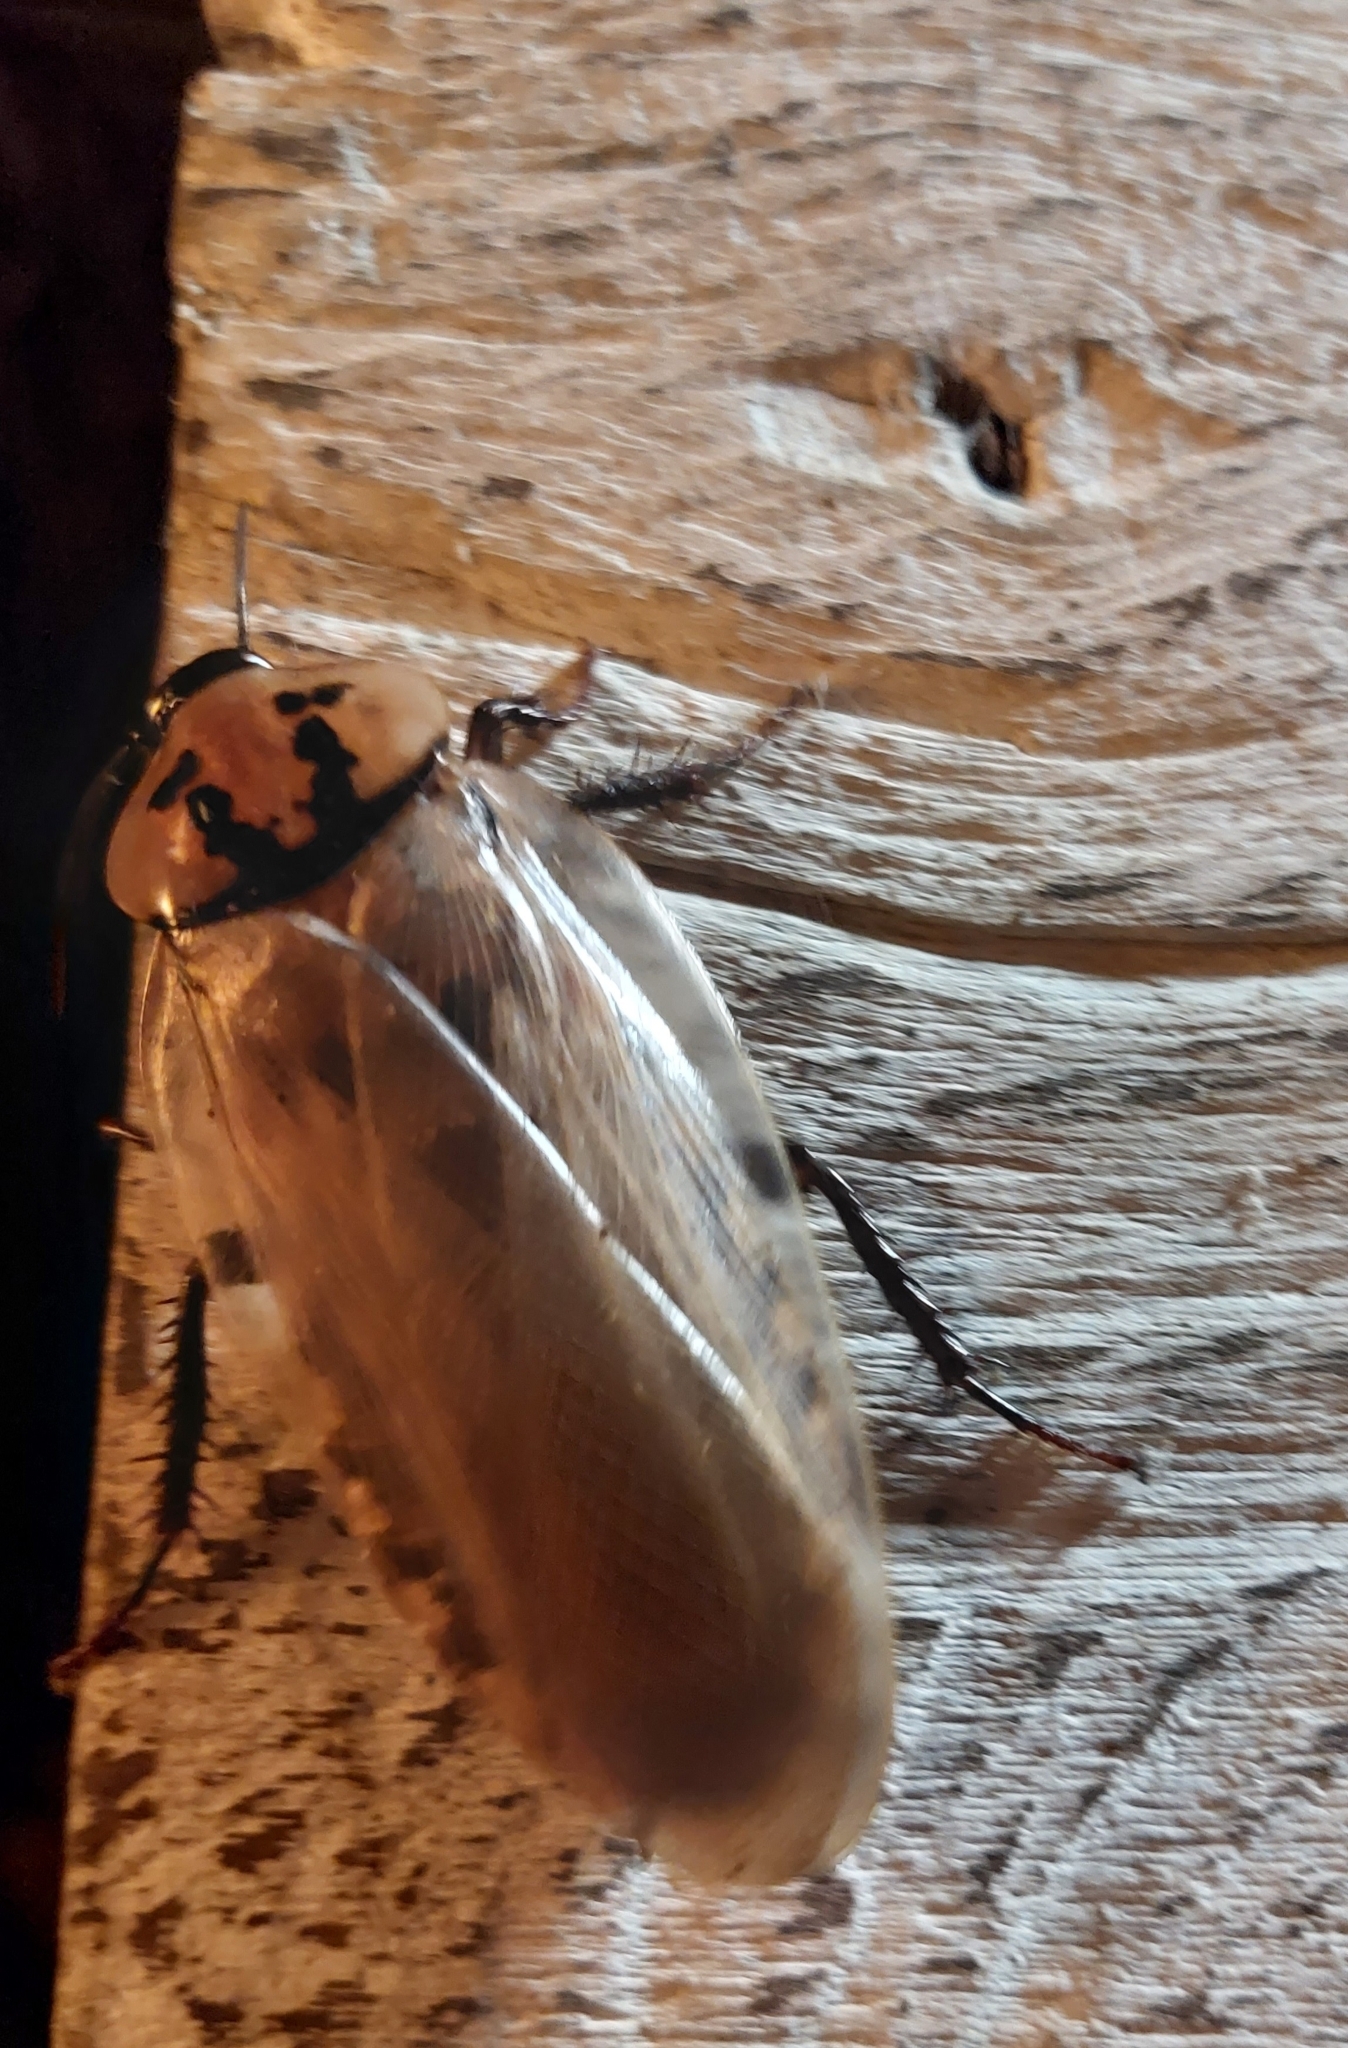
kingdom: Animalia
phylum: Arthropoda
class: Insecta
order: Blattodea
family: Blaberidae
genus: Eublaberus
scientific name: Eublaberus distanti
